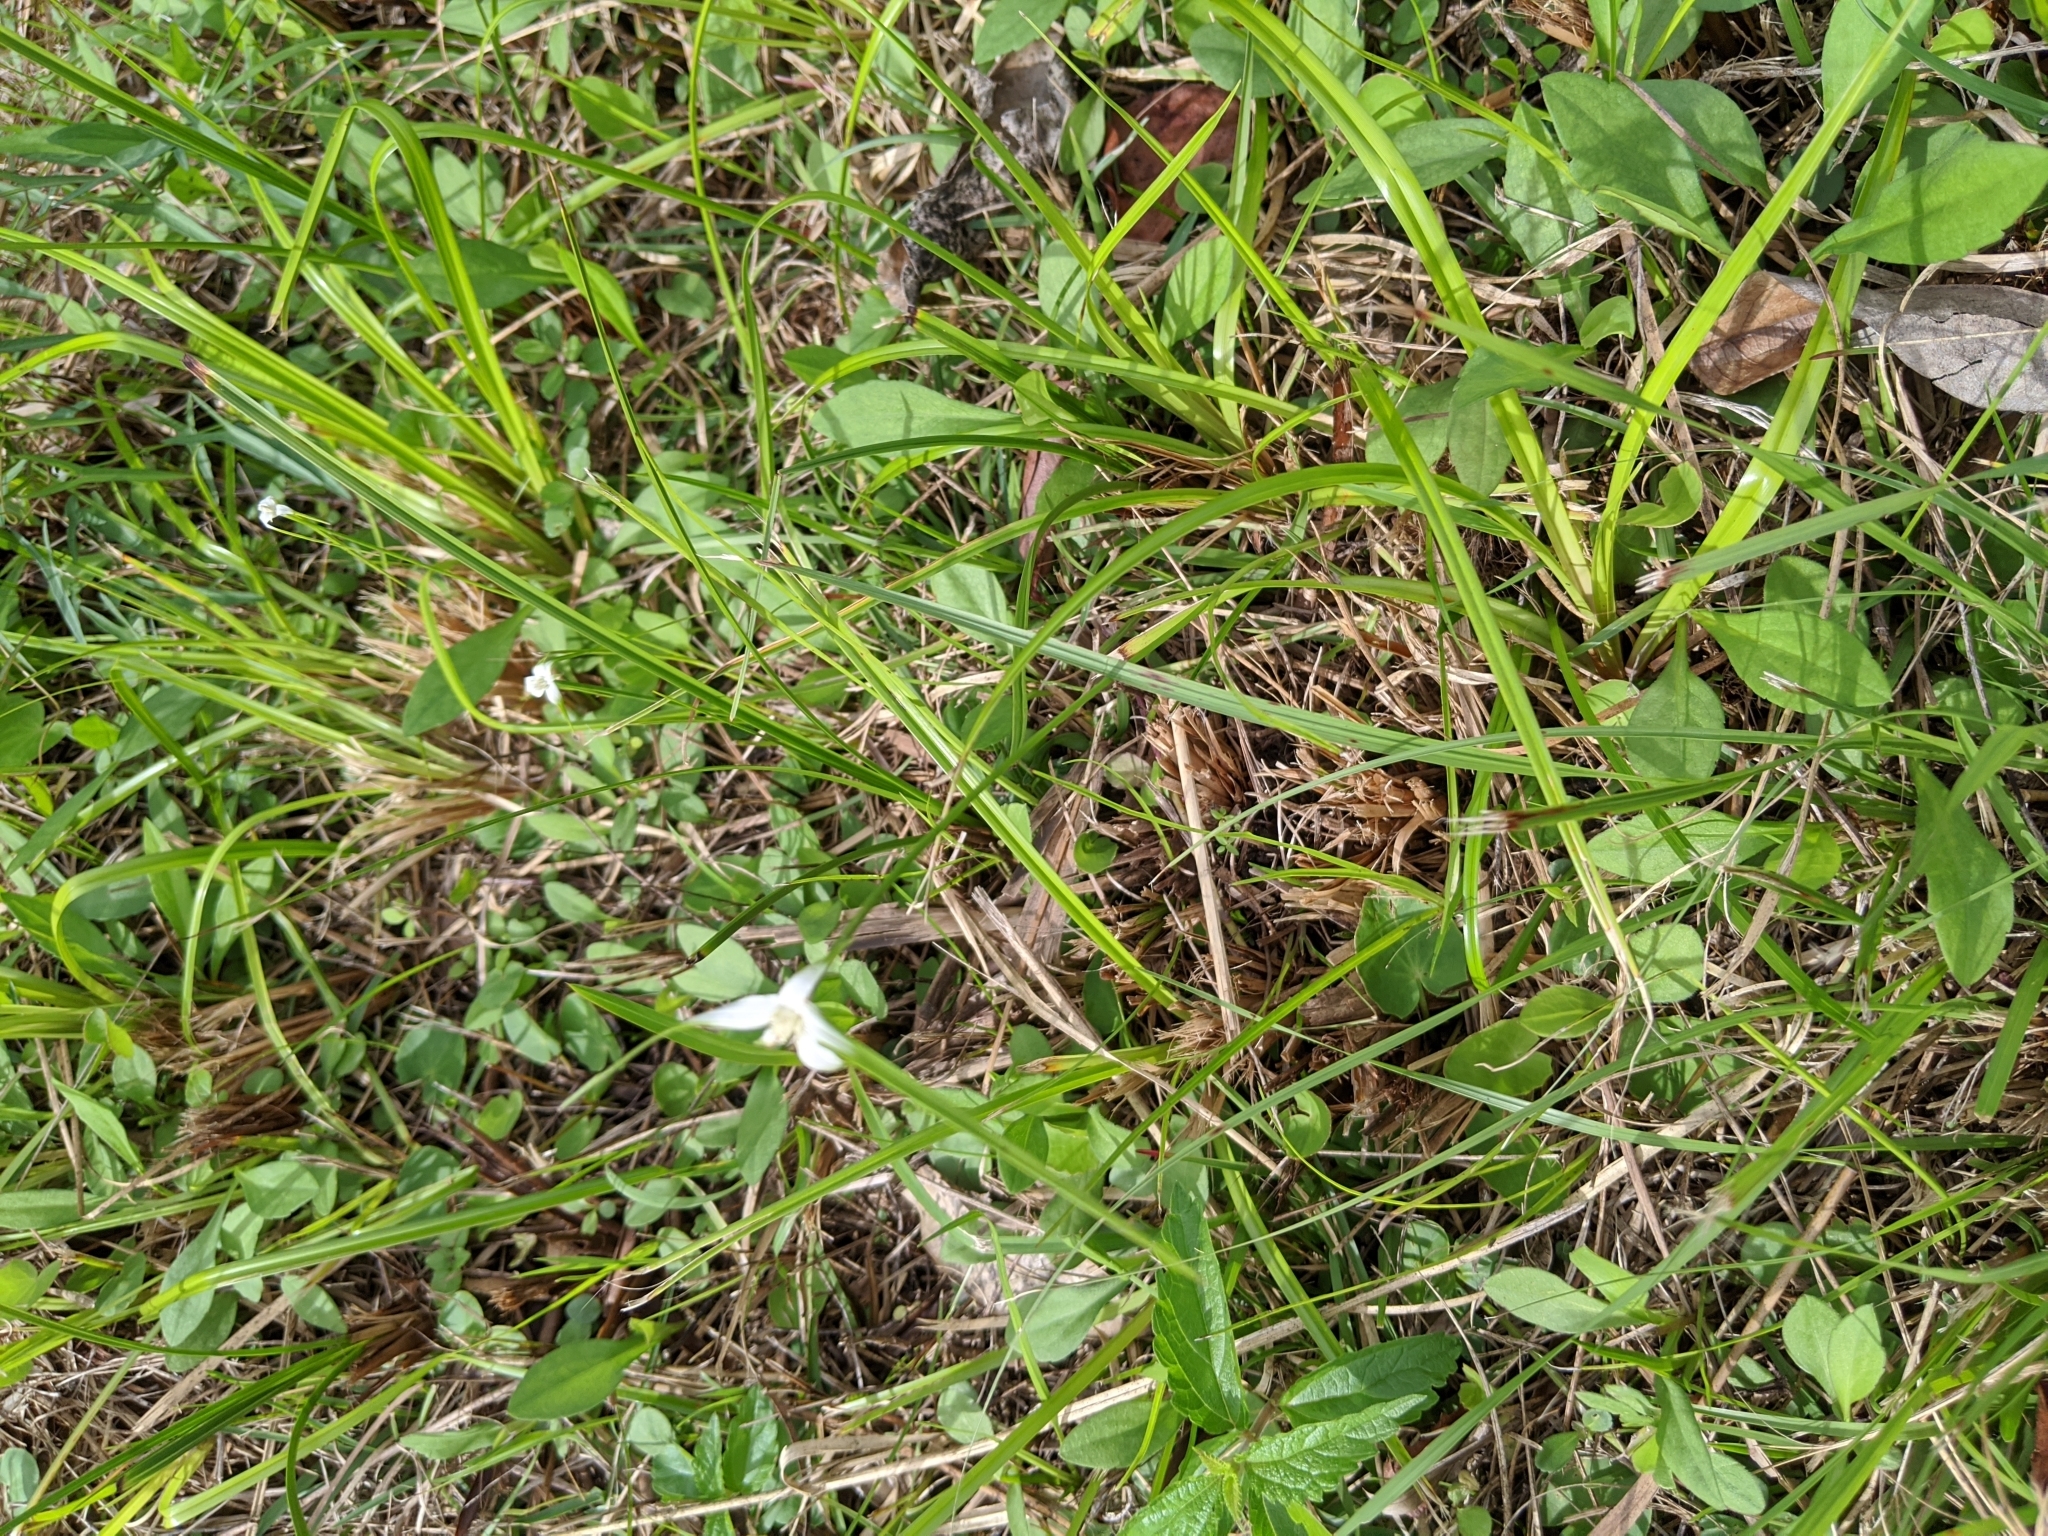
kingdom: Plantae
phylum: Tracheophyta
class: Liliopsida
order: Poales
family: Cyperaceae
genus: Rhynchospora
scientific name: Rhynchospora colorata
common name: Star sedge
